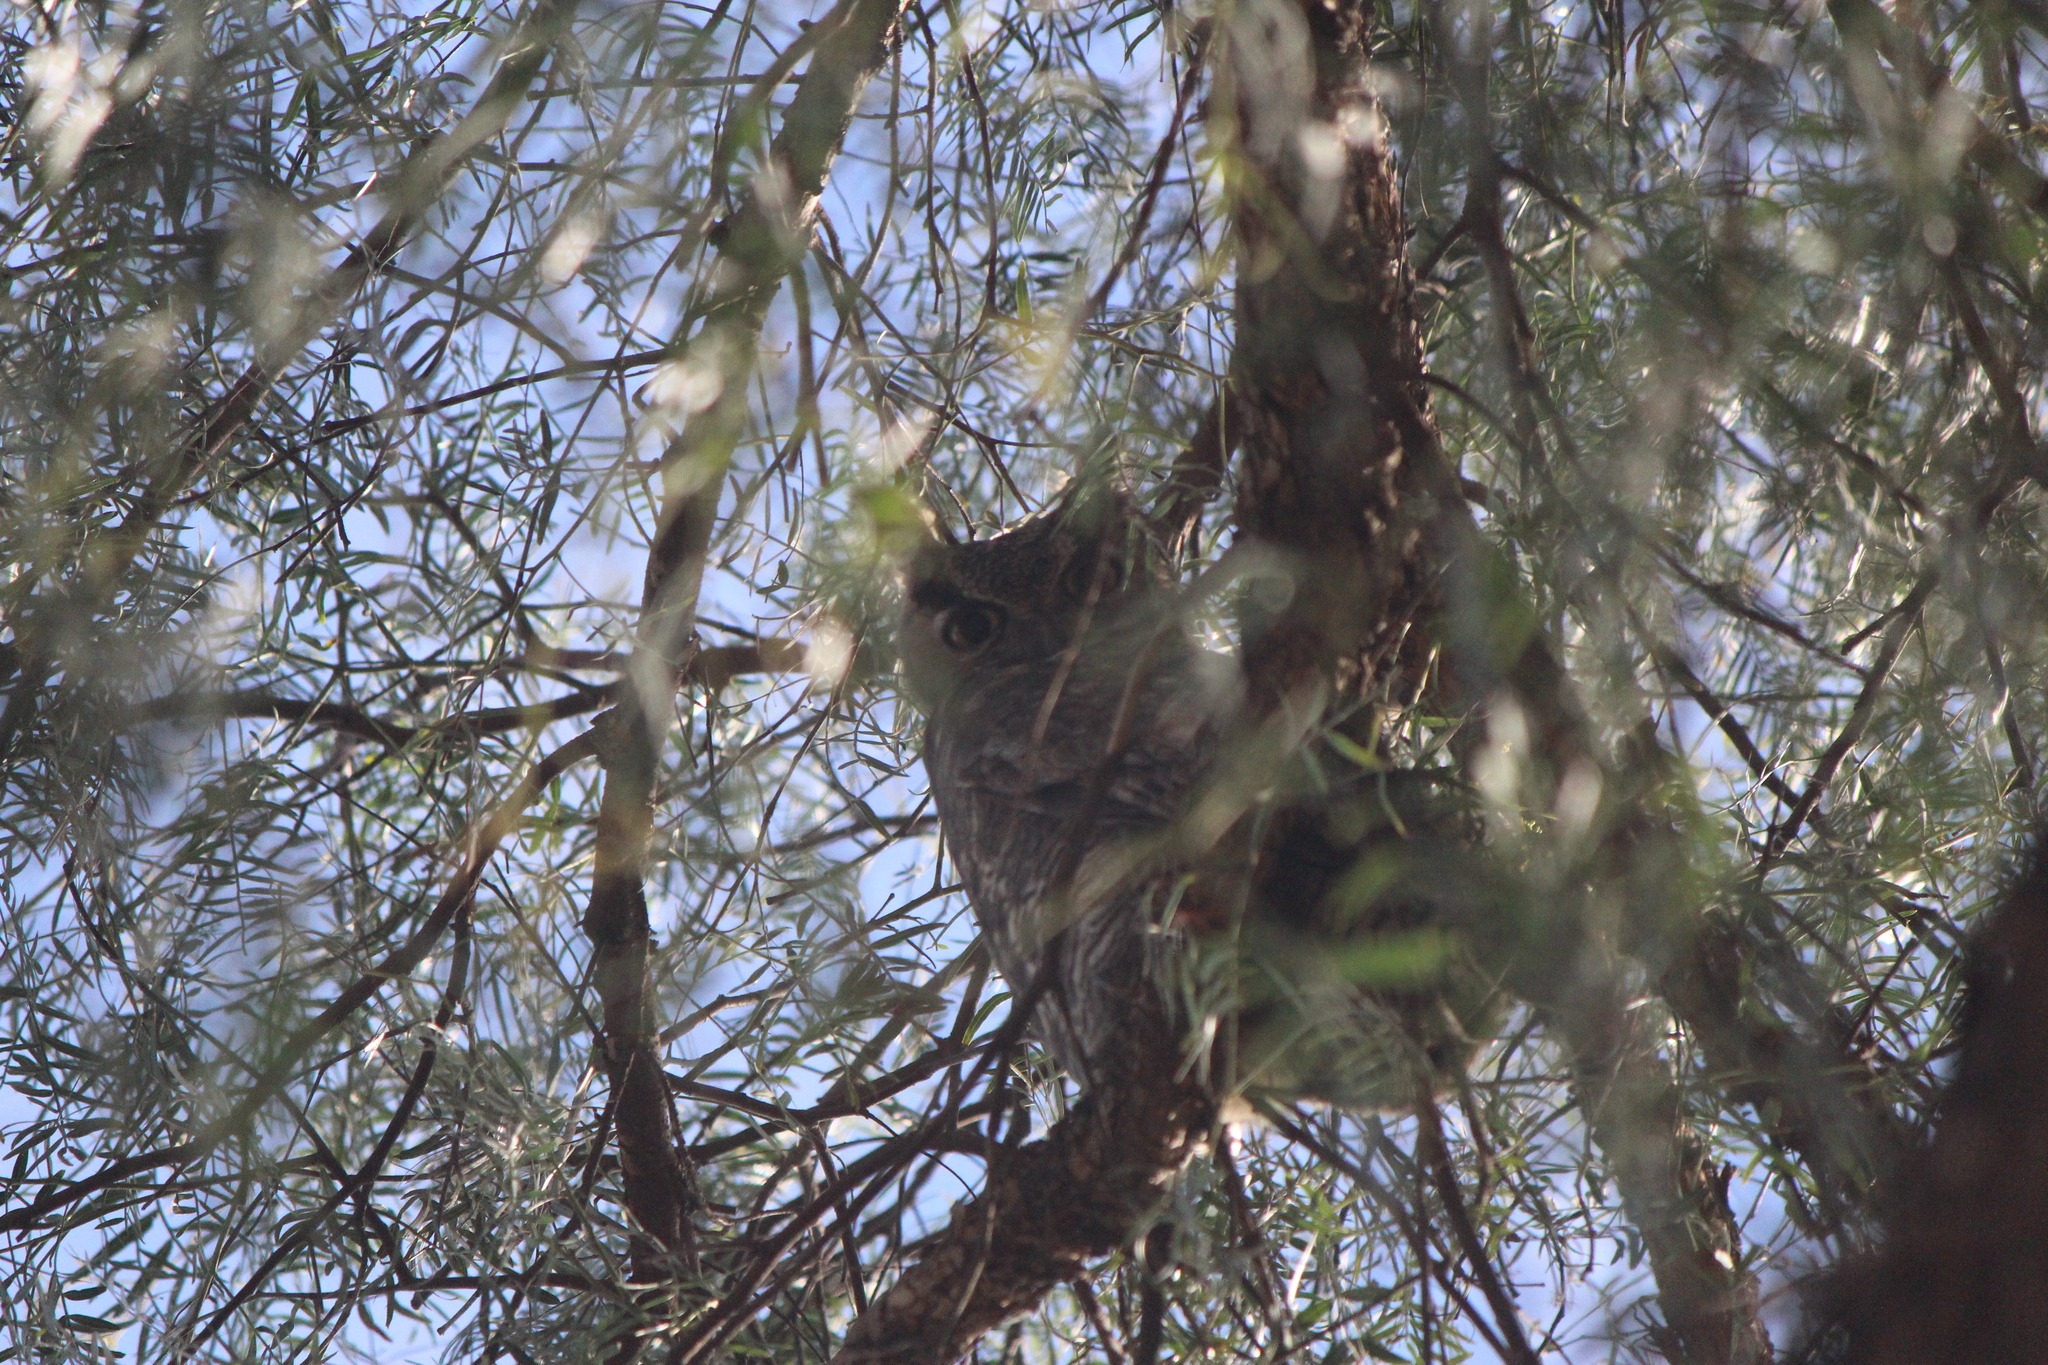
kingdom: Animalia
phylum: Chordata
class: Aves
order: Strigiformes
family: Strigidae
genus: Bubo
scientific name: Bubo virginianus
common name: Great horned owl
